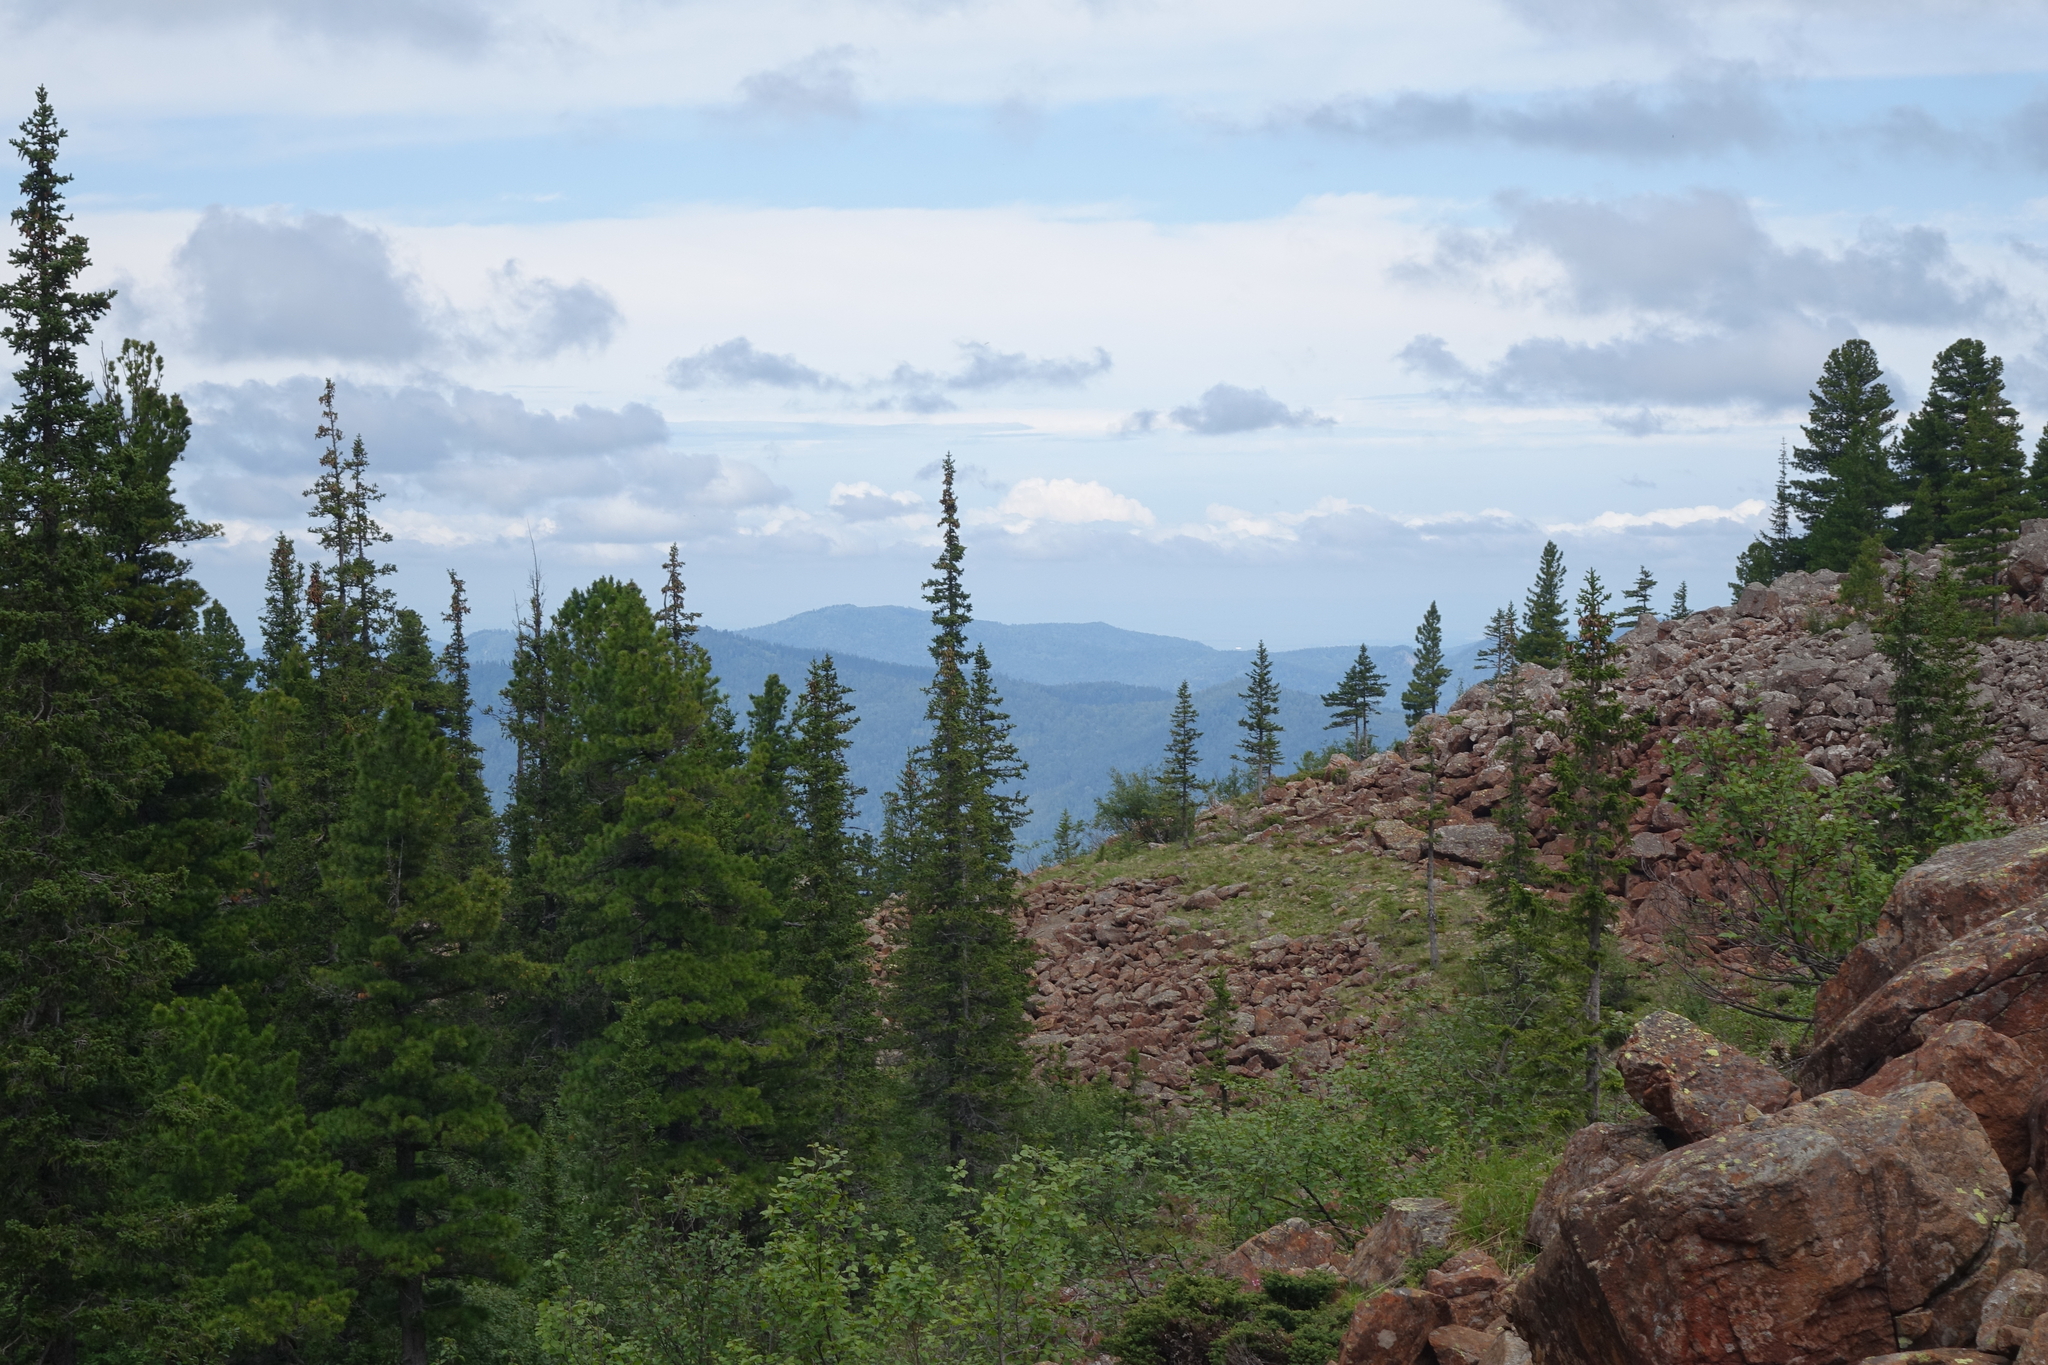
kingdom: Plantae
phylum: Tracheophyta
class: Pinopsida
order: Pinales
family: Pinaceae
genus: Pinus
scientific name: Pinus sibirica
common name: Siberian pine
